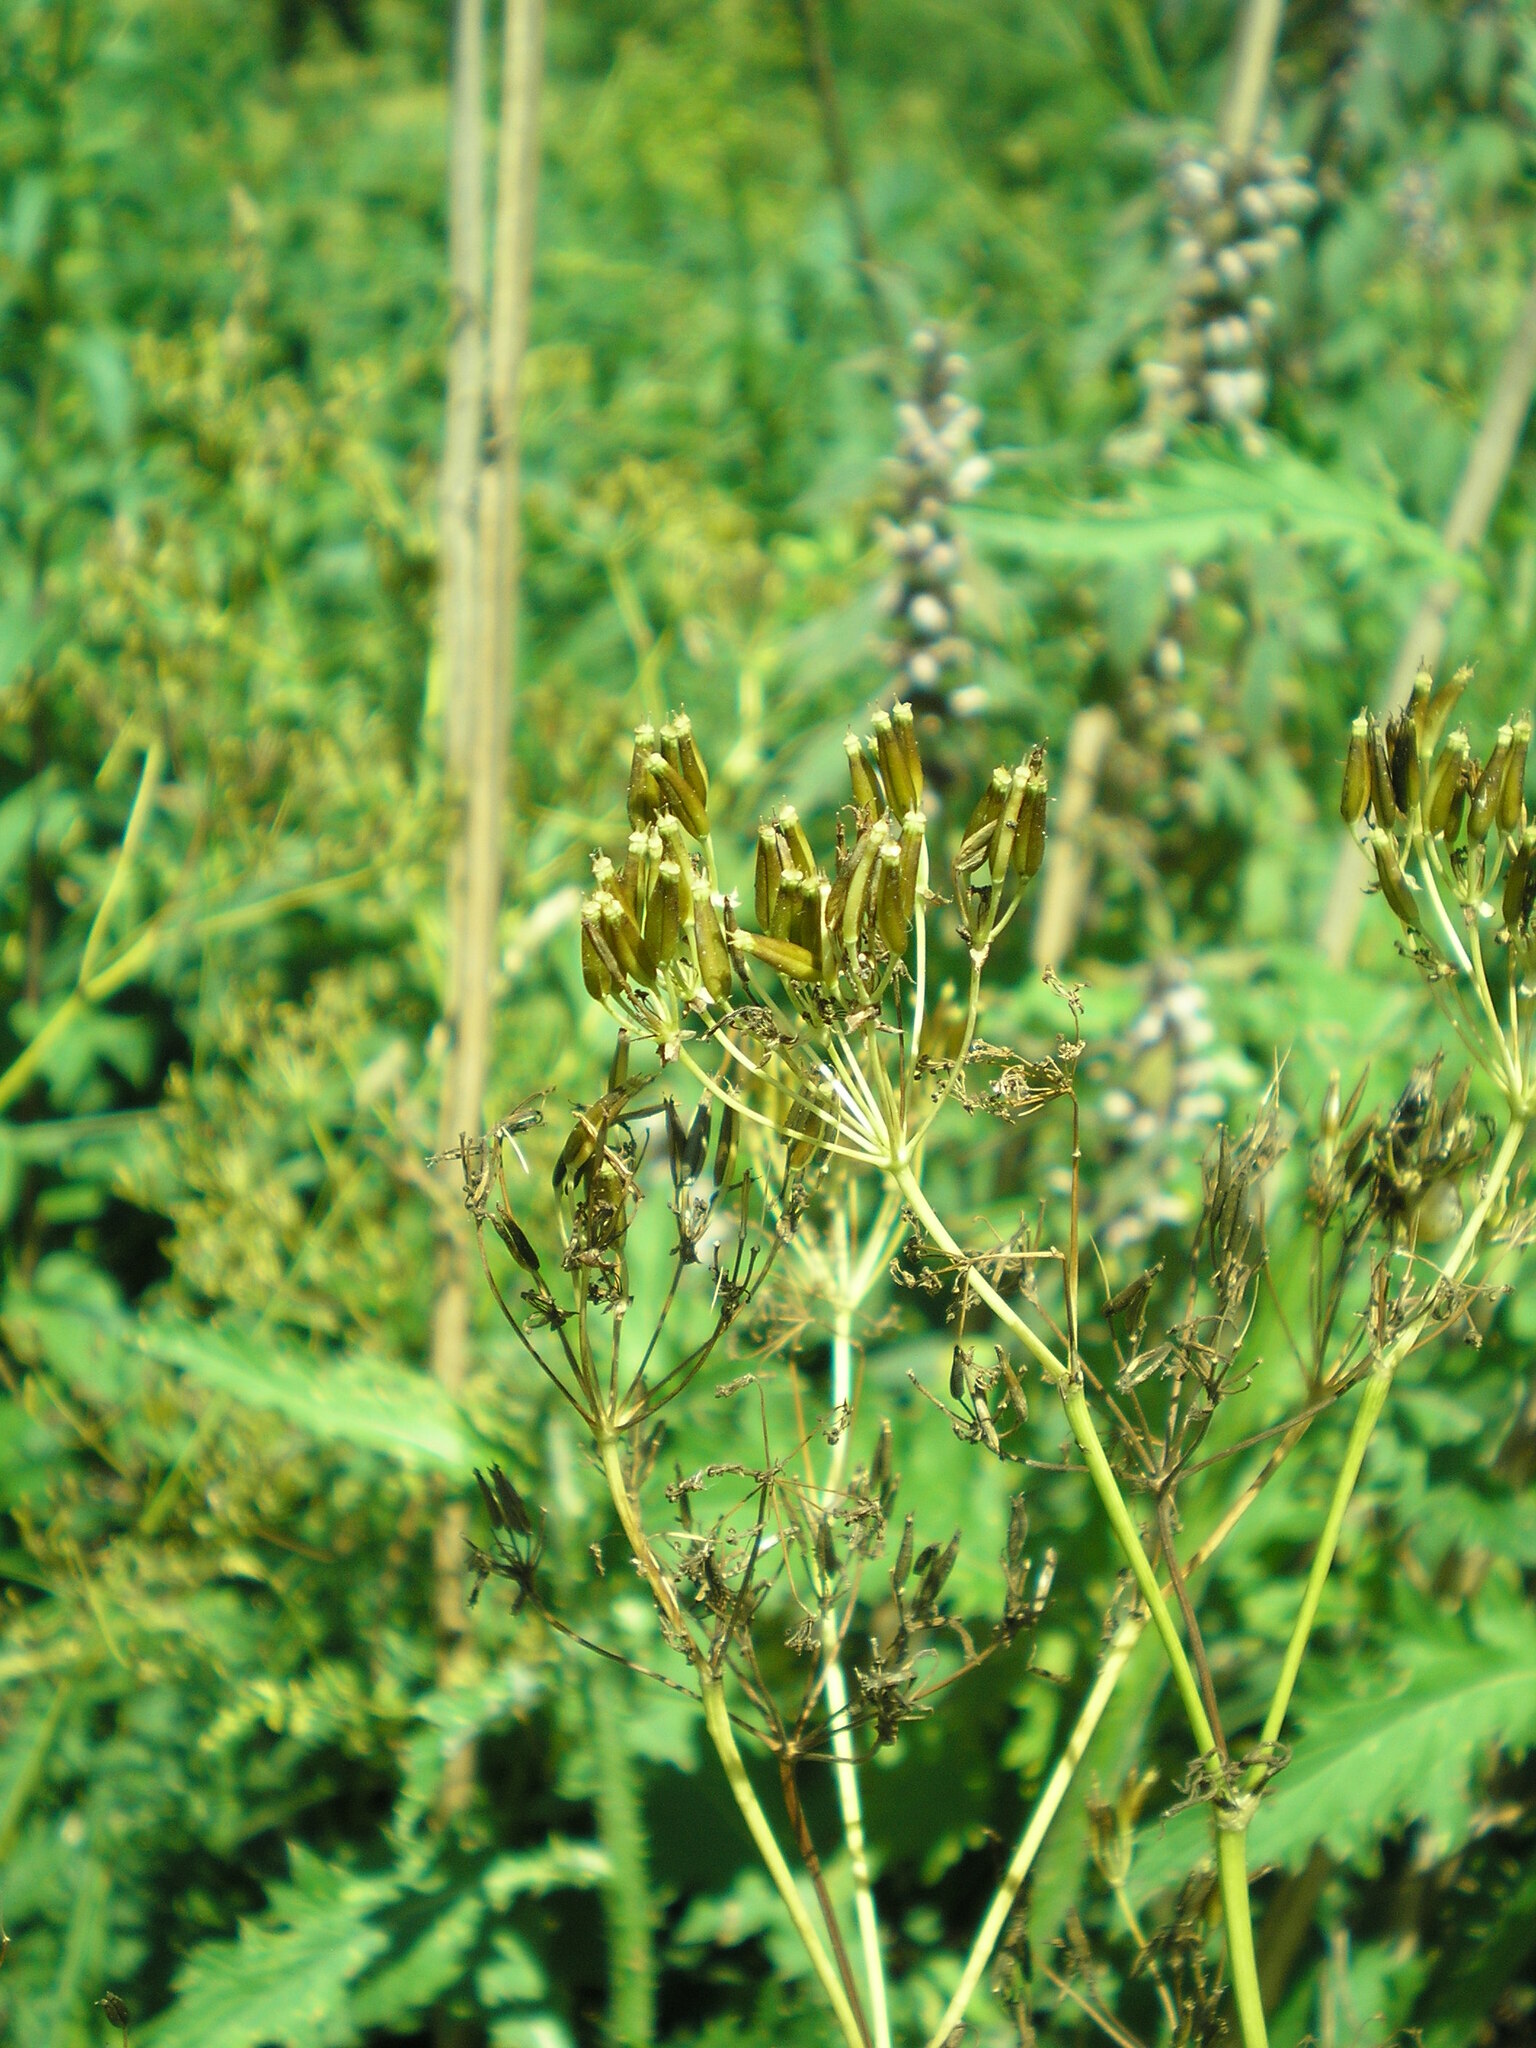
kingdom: Plantae
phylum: Tracheophyta
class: Magnoliopsida
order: Apiales
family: Apiaceae
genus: Anthriscus
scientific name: Anthriscus sylvestris
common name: Cow parsley
